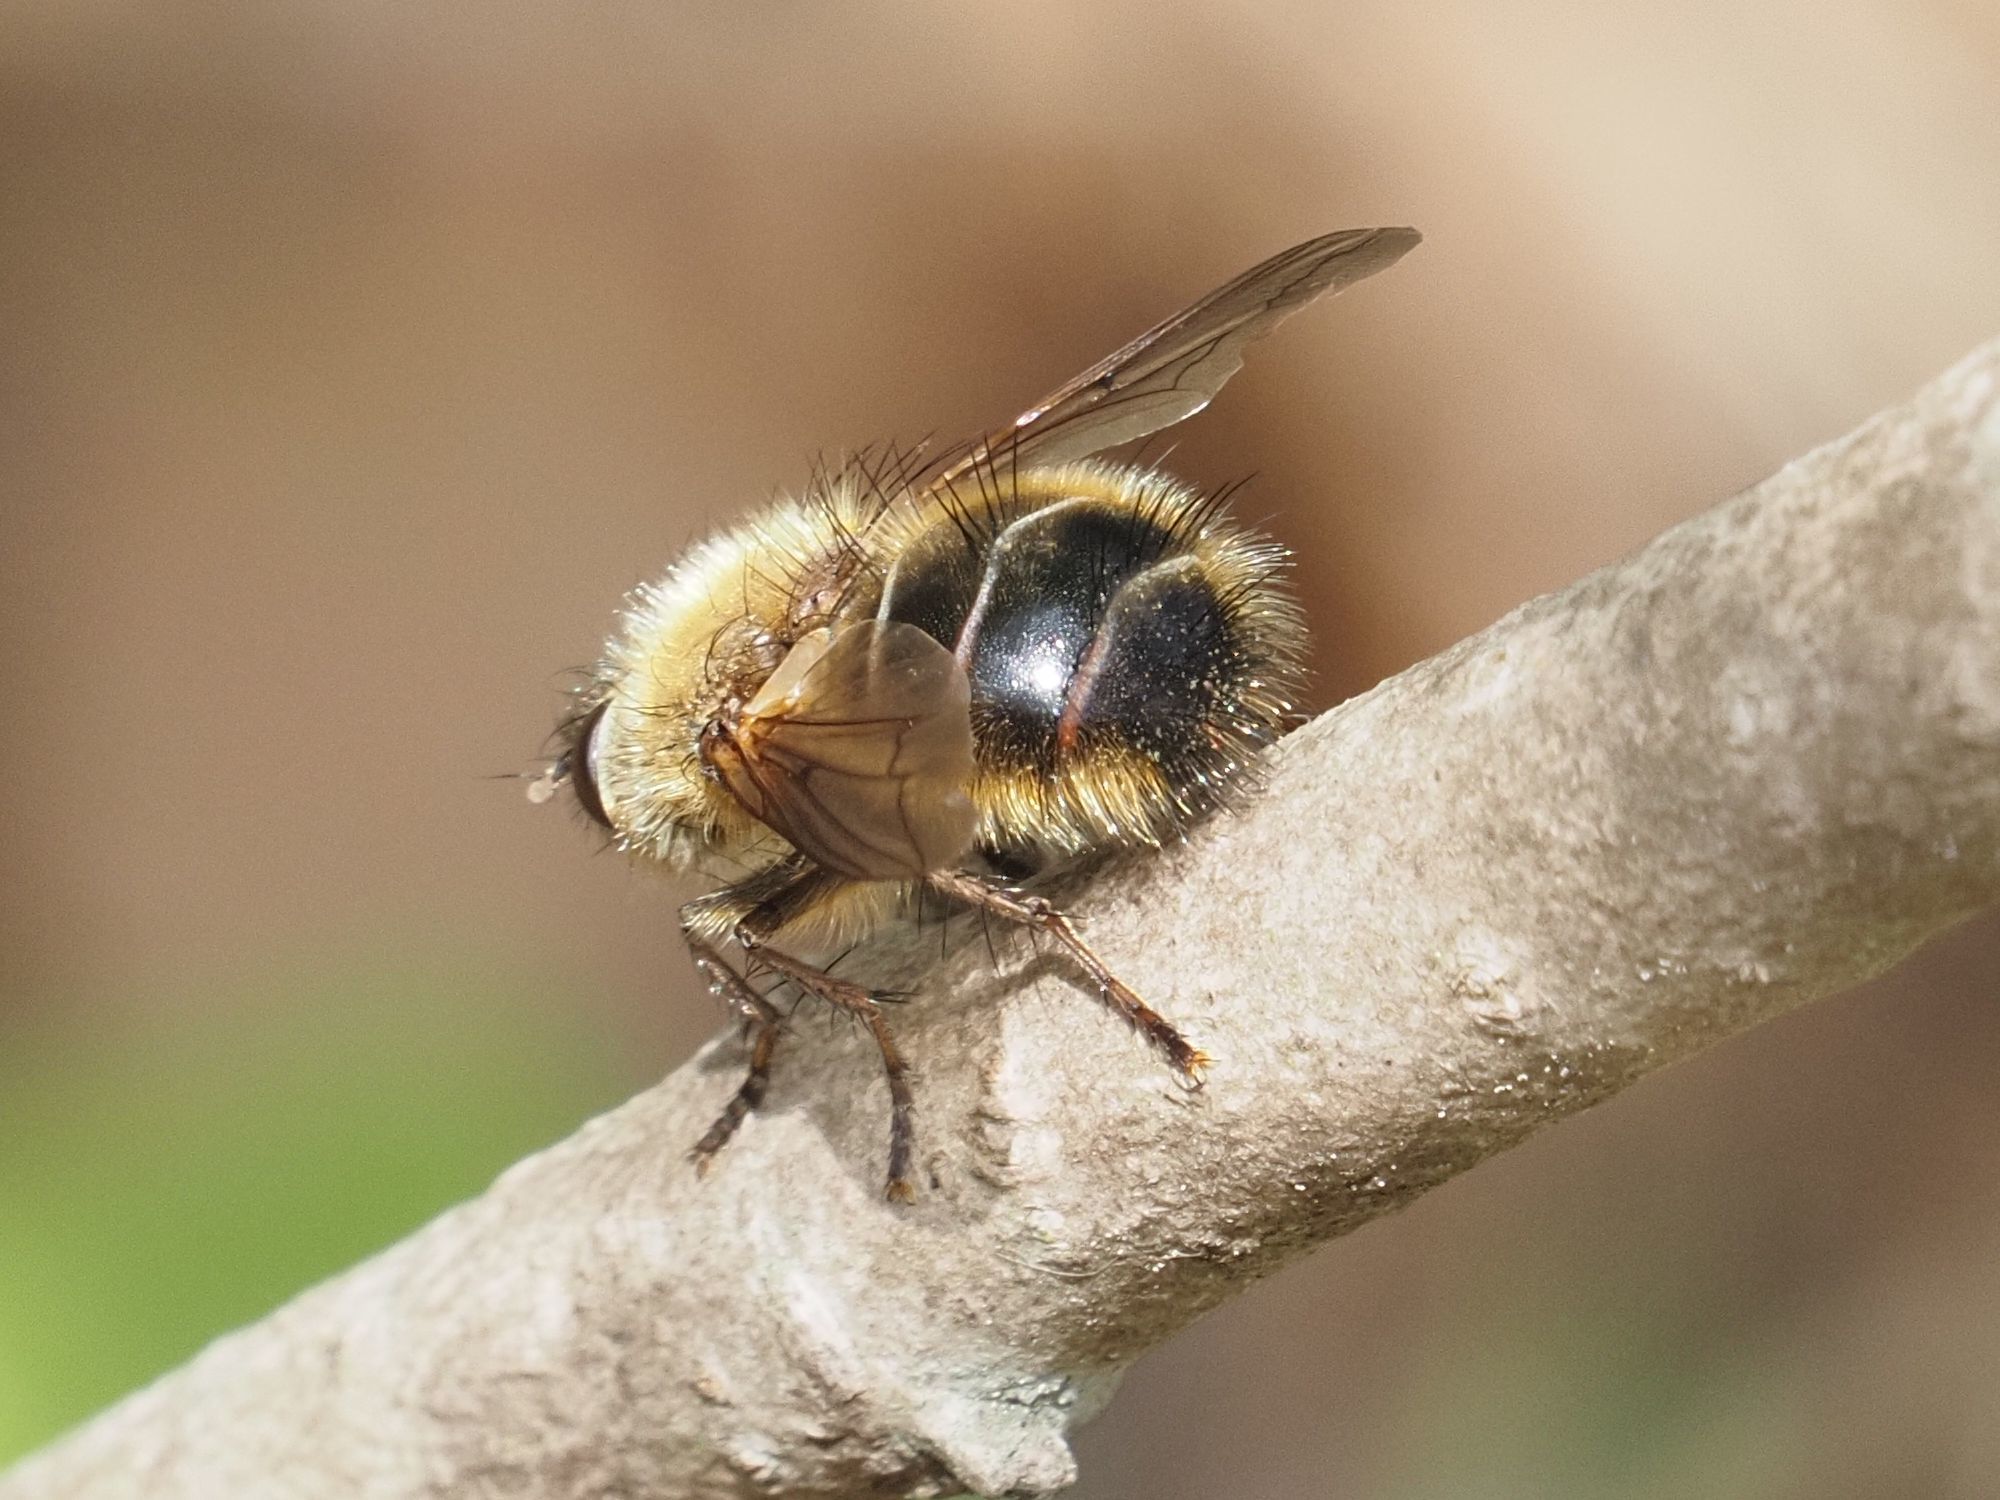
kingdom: Animalia
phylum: Arthropoda
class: Insecta
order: Diptera
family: Tachinidae
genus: Tachina
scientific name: Tachina ursina
